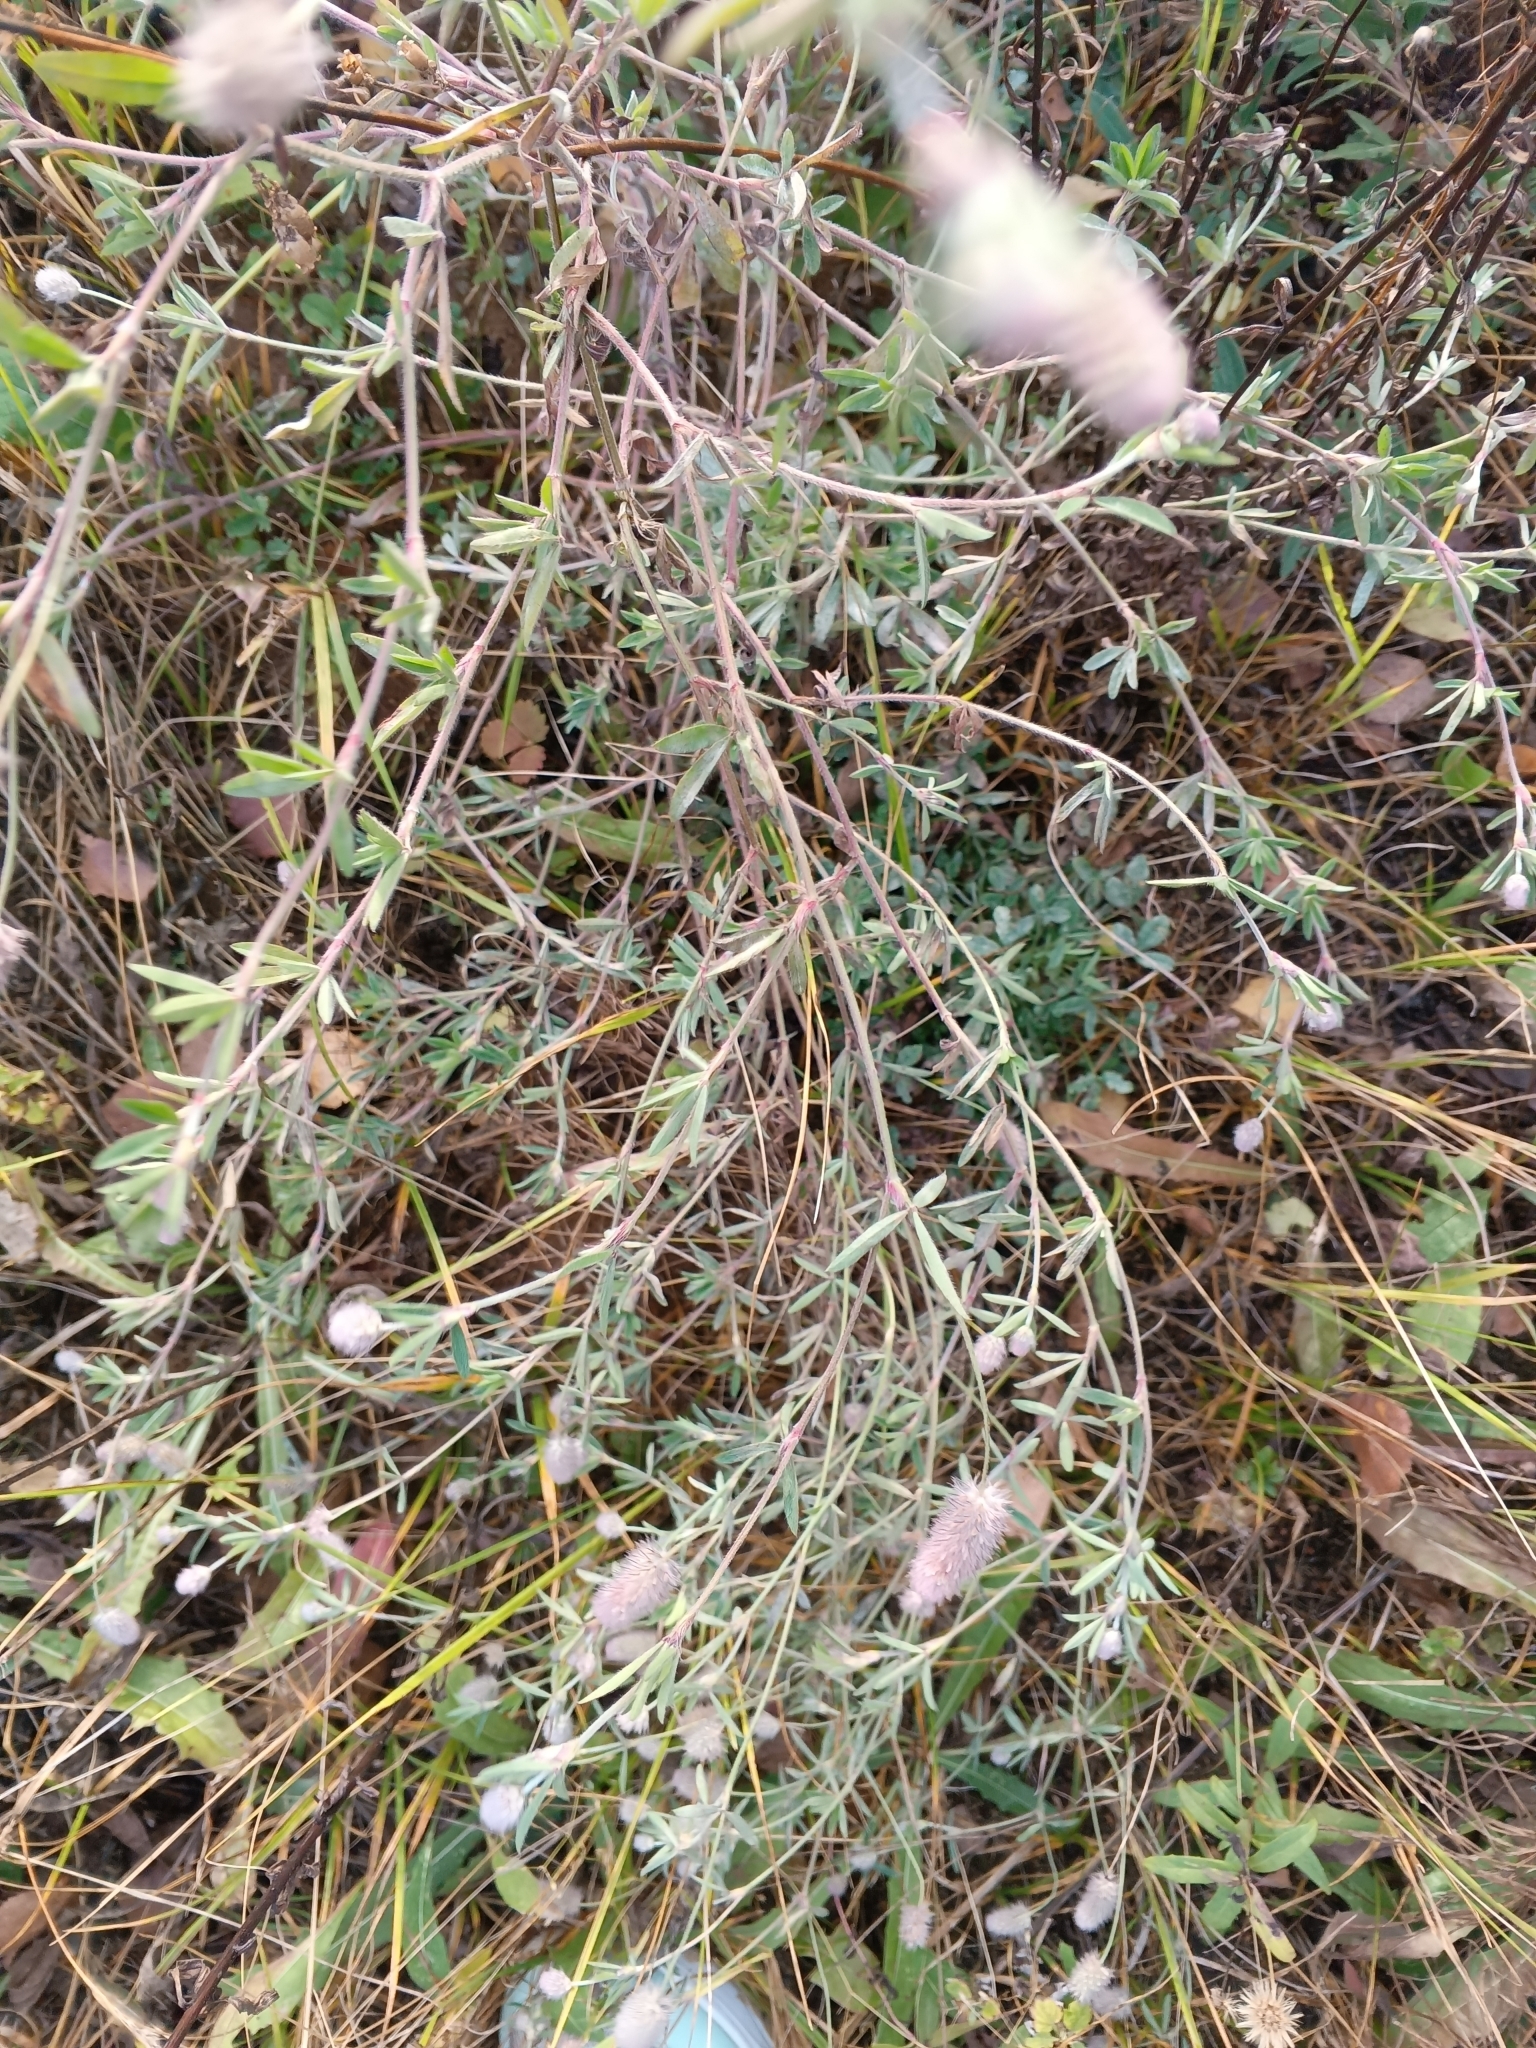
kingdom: Plantae
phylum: Tracheophyta
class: Magnoliopsida
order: Fabales
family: Fabaceae
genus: Trifolium
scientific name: Trifolium arvense
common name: Hare's-foot clover
